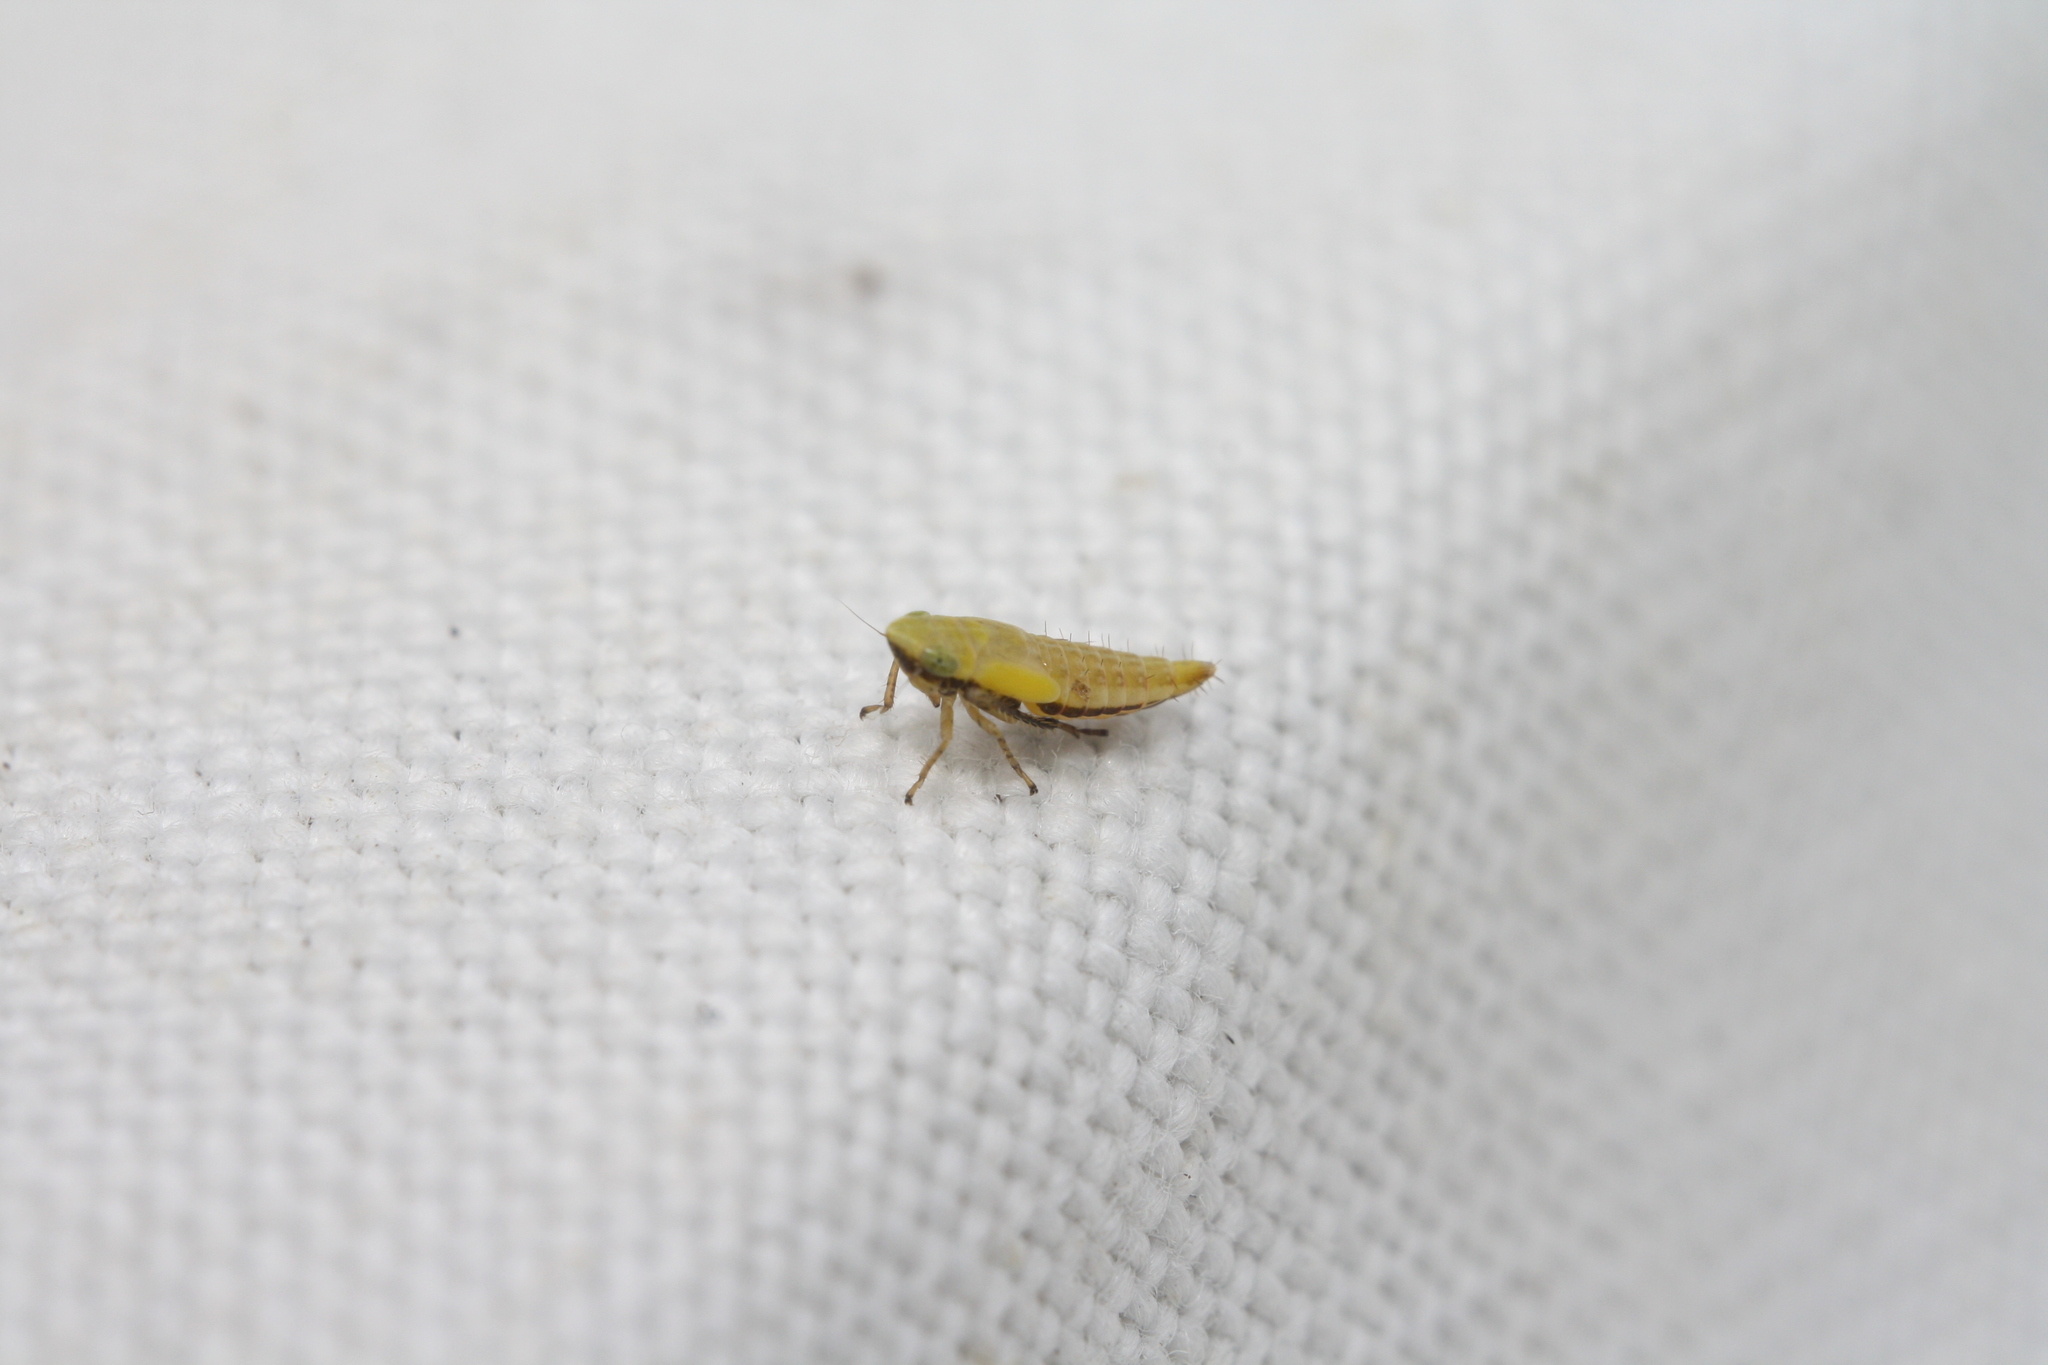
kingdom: Animalia
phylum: Arthropoda
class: Insecta
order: Hemiptera
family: Cicadellidae
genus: Diplocolenus
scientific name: Diplocolenus abdominalis
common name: Leafhopper
